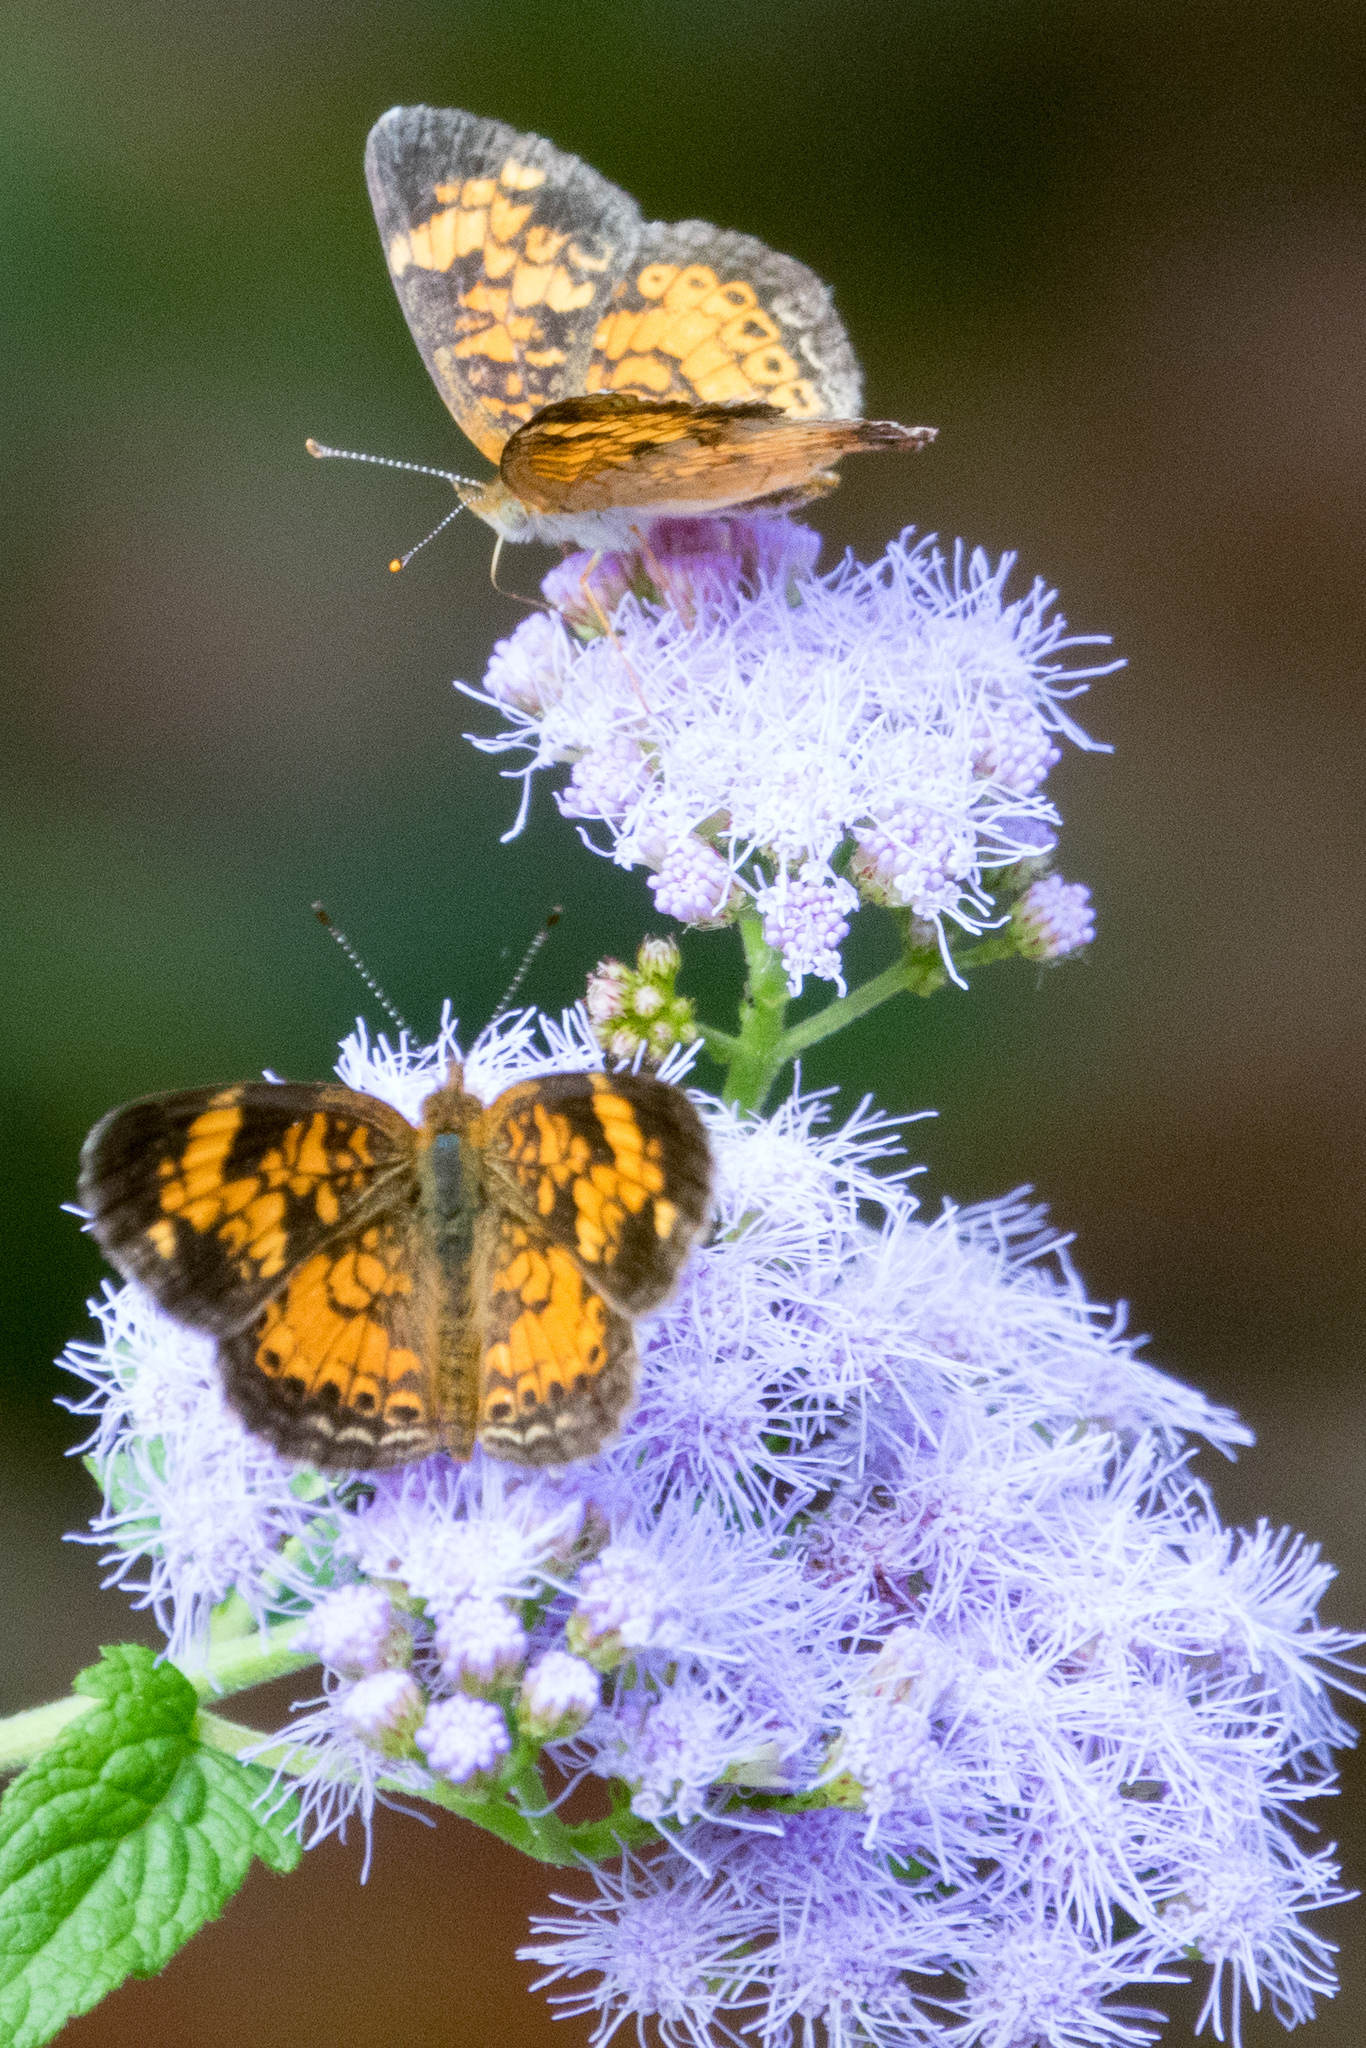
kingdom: Animalia
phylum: Arthropoda
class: Insecta
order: Lepidoptera
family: Nymphalidae
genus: Phyciodes
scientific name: Phyciodes tharos
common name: Pearl crescent
